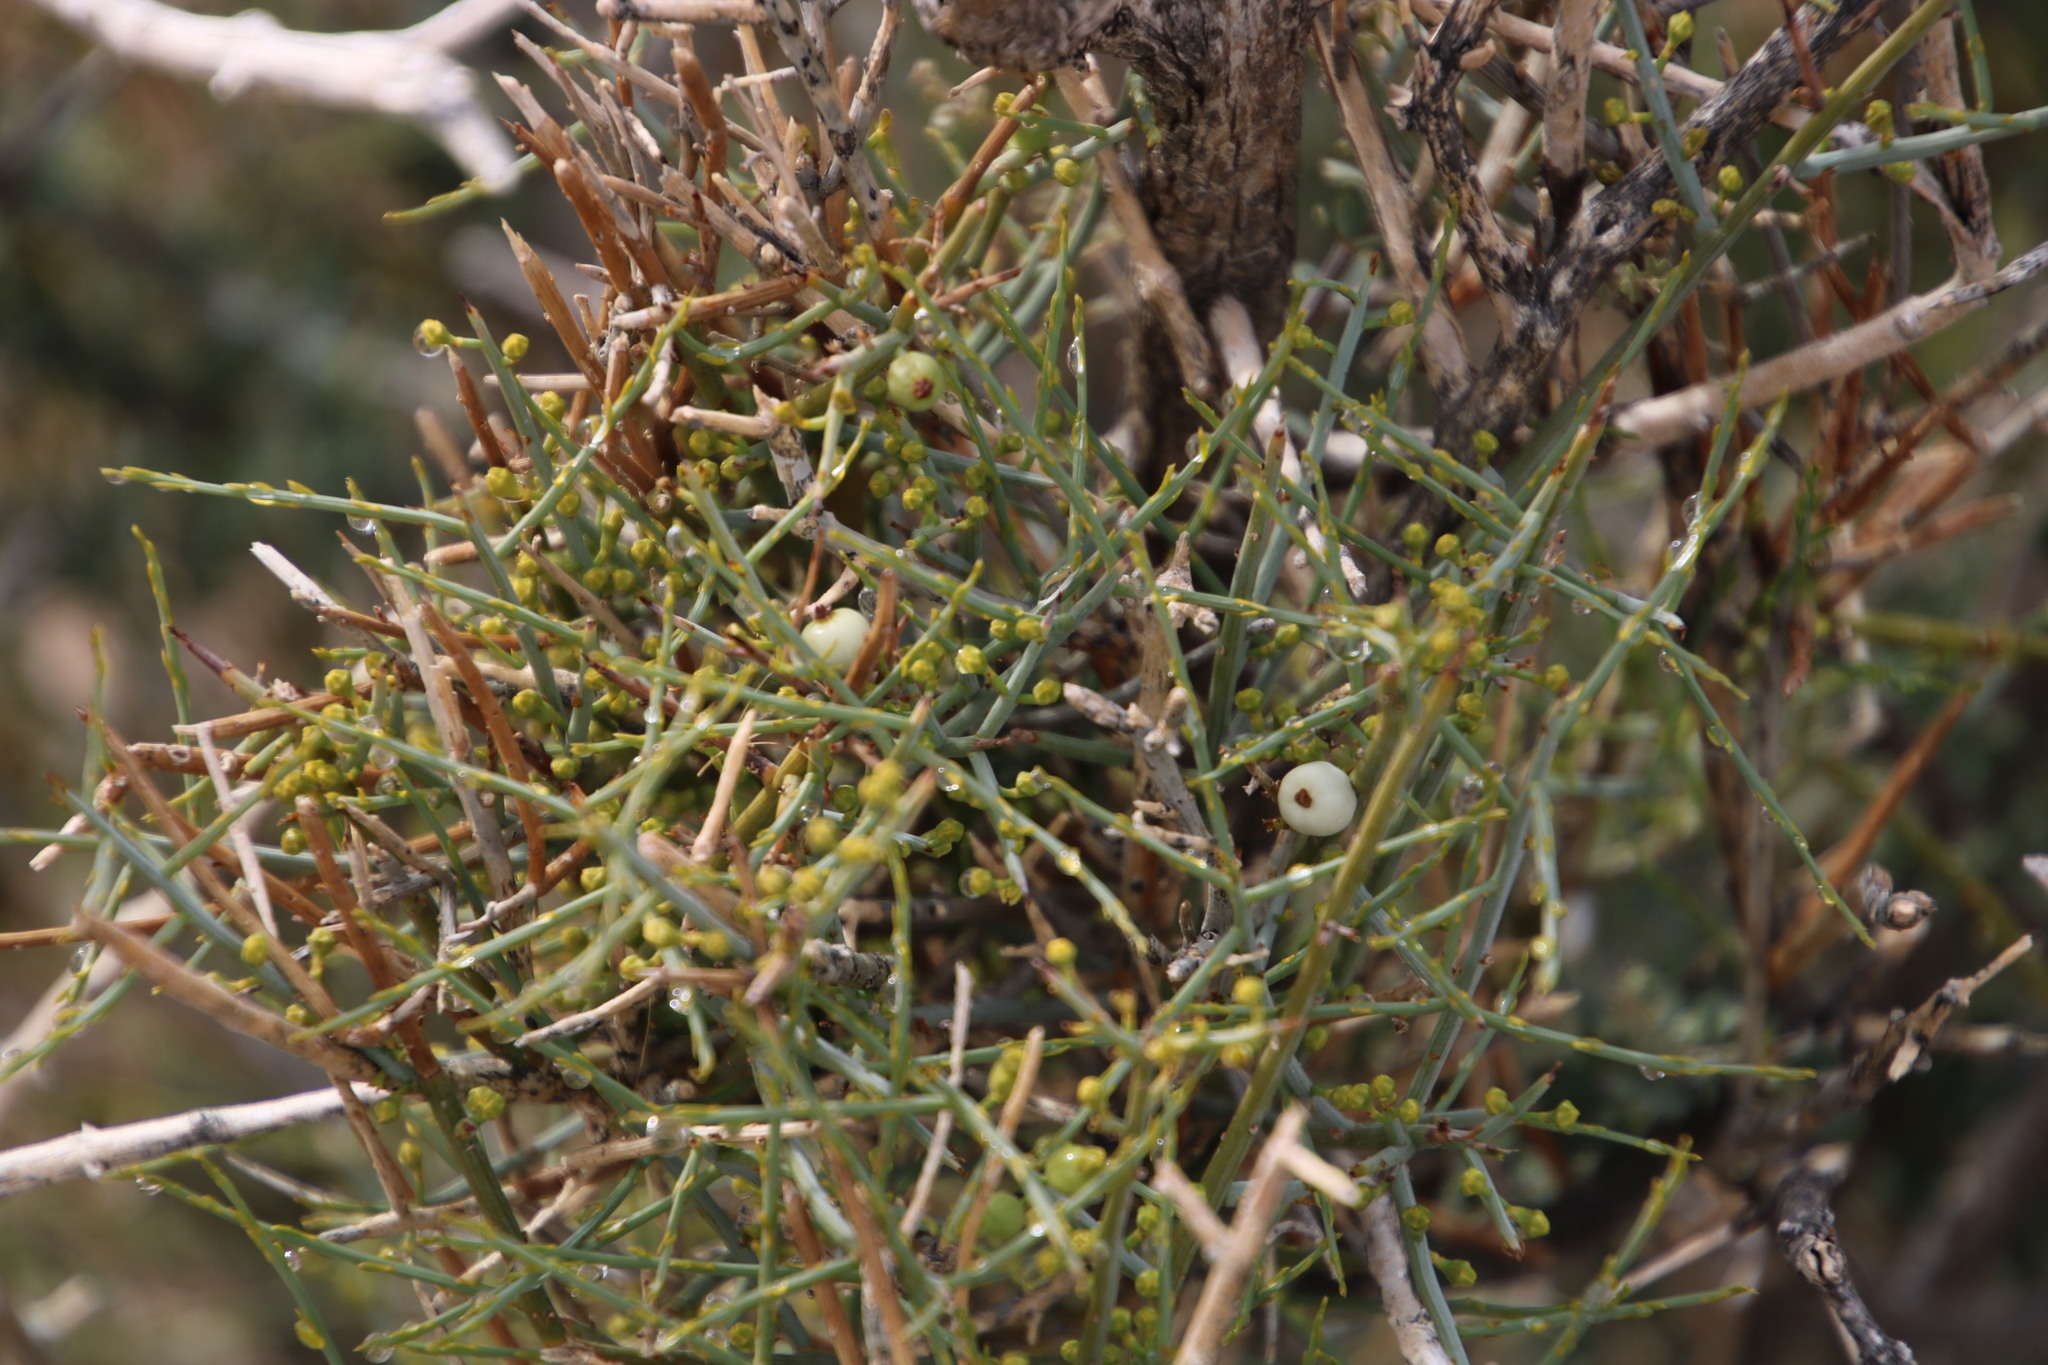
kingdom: Plantae
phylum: Tracheophyta
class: Magnoliopsida
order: Santalales
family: Thesiaceae
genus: Lacomucinaea
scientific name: Lacomucinaea lineata
